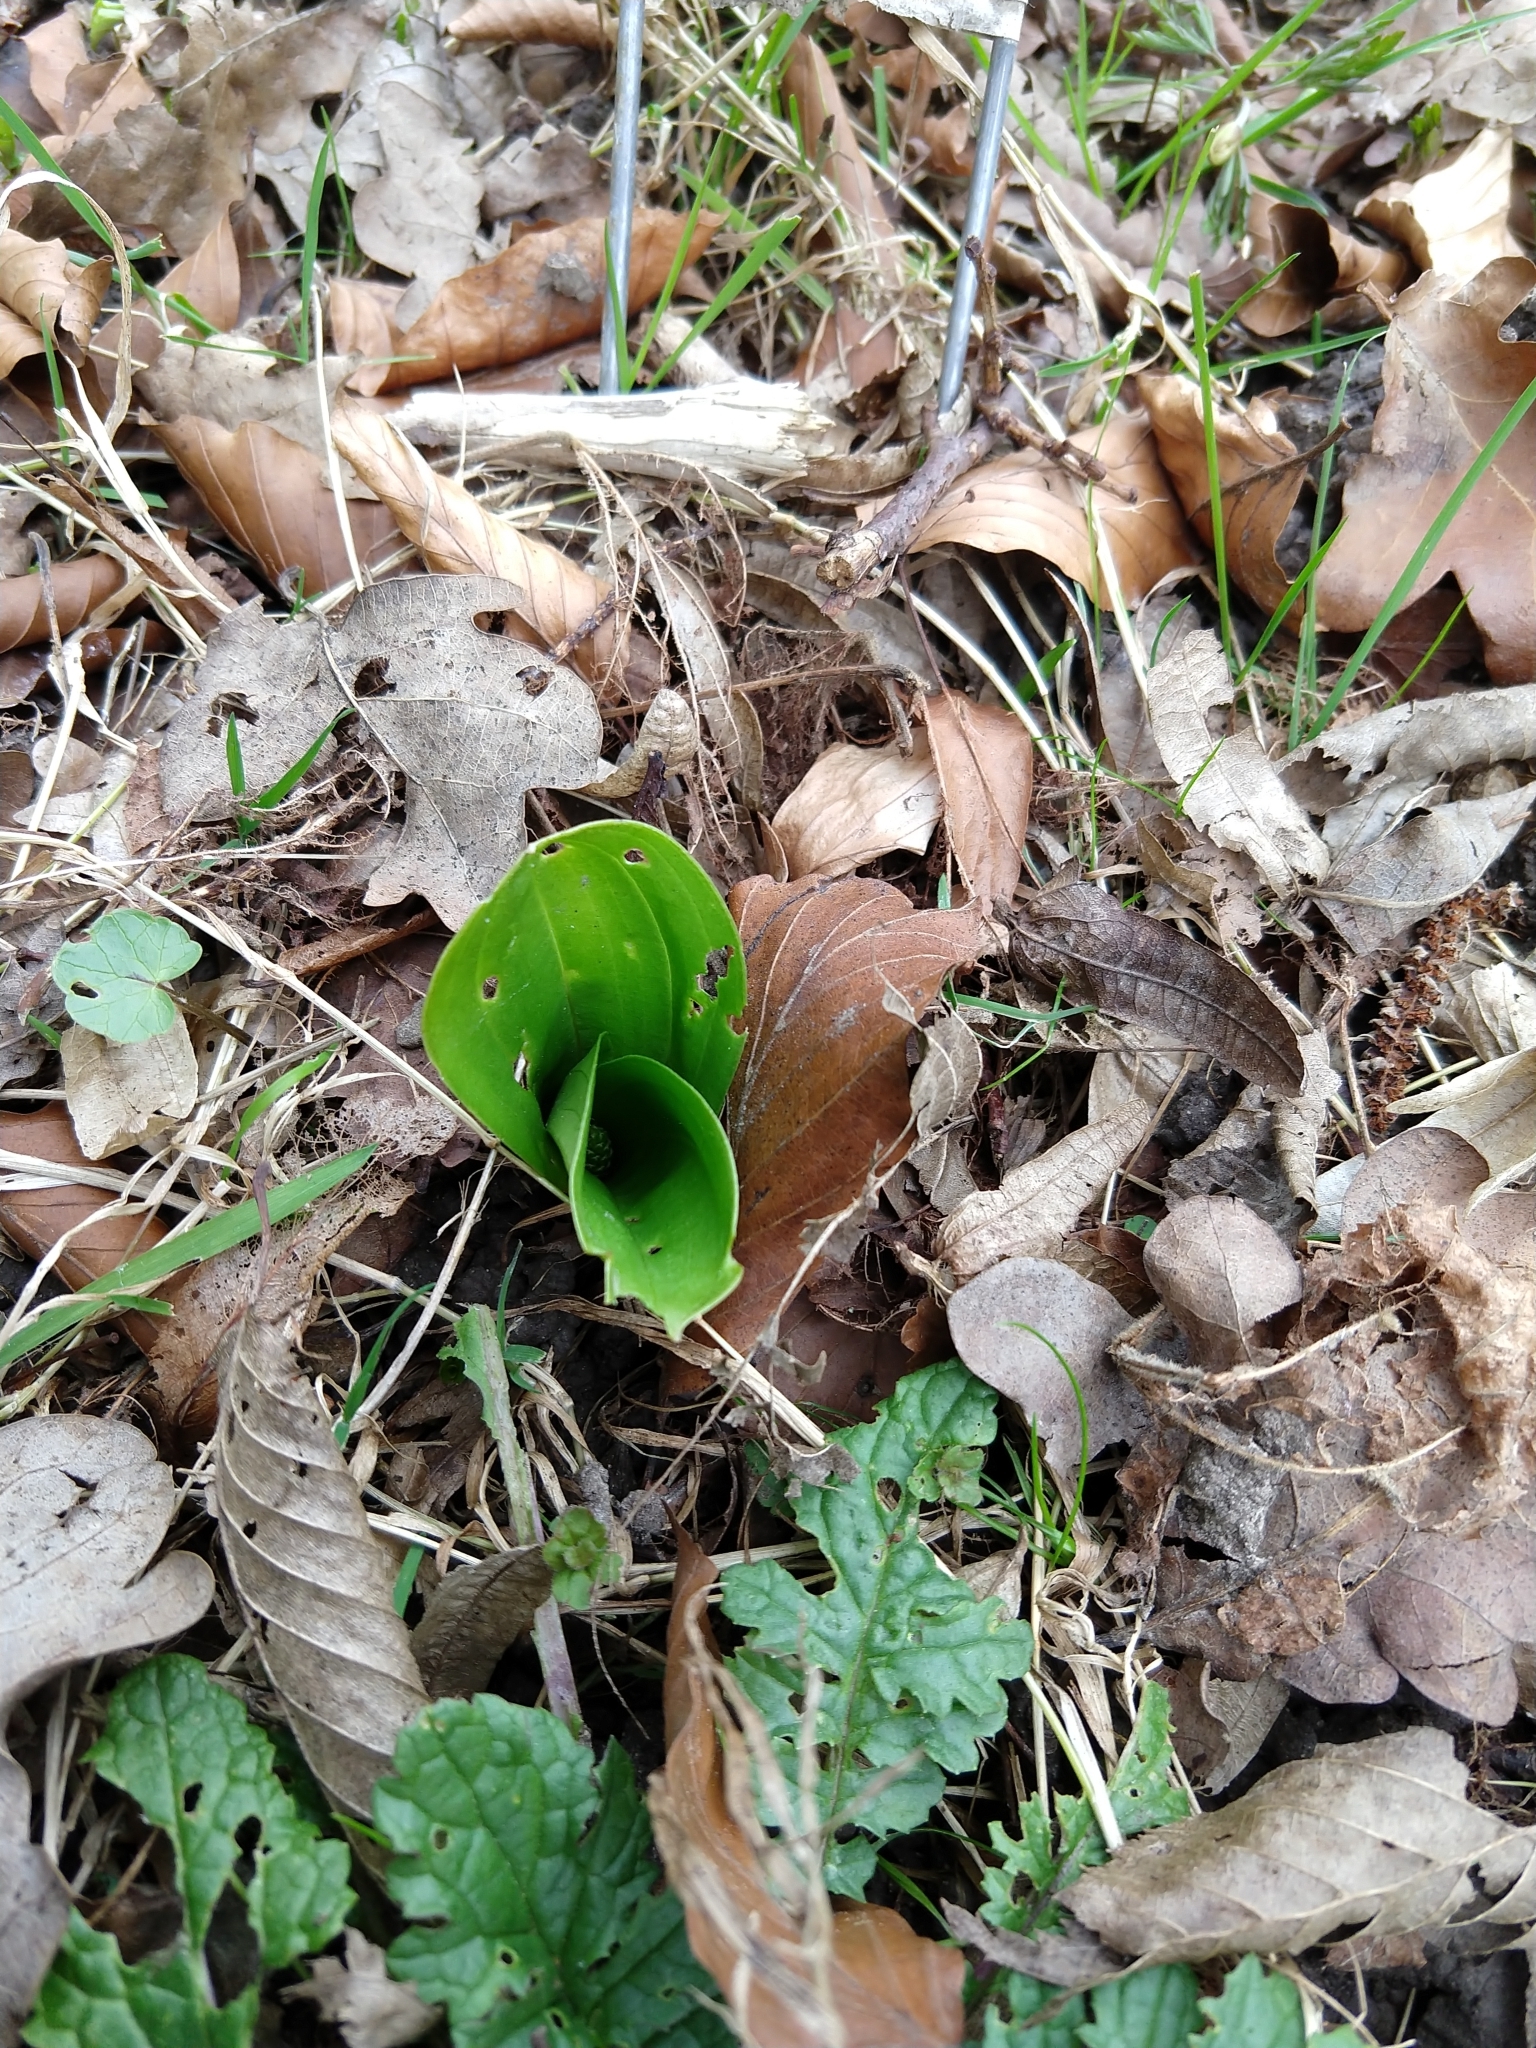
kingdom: Plantae
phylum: Tracheophyta
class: Liliopsida
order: Asparagales
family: Orchidaceae
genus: Neottia
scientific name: Neottia ovata
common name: Common twayblade
